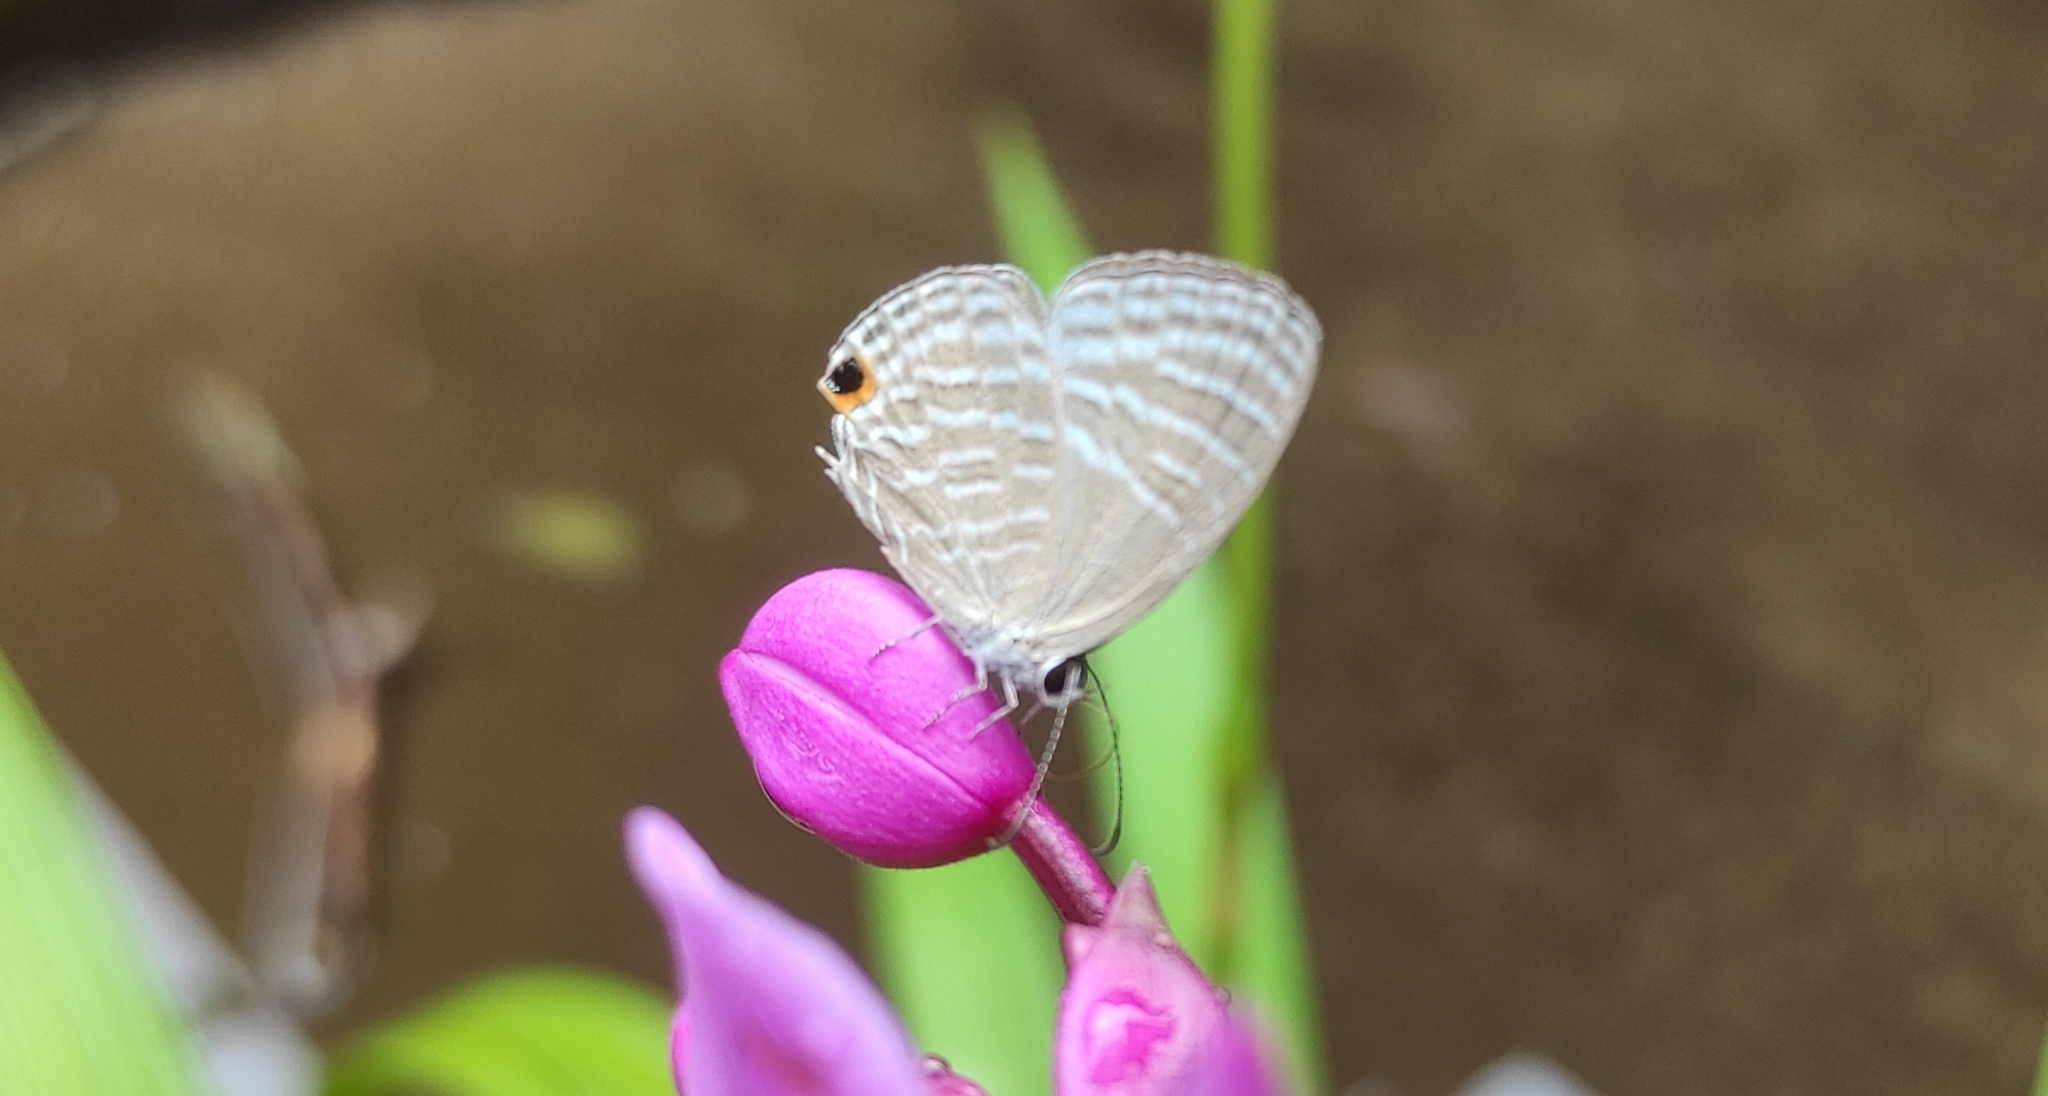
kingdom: Animalia
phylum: Arthropoda
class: Insecta
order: Lepidoptera
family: Lycaenidae
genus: Jamides
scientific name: Jamides celeno
